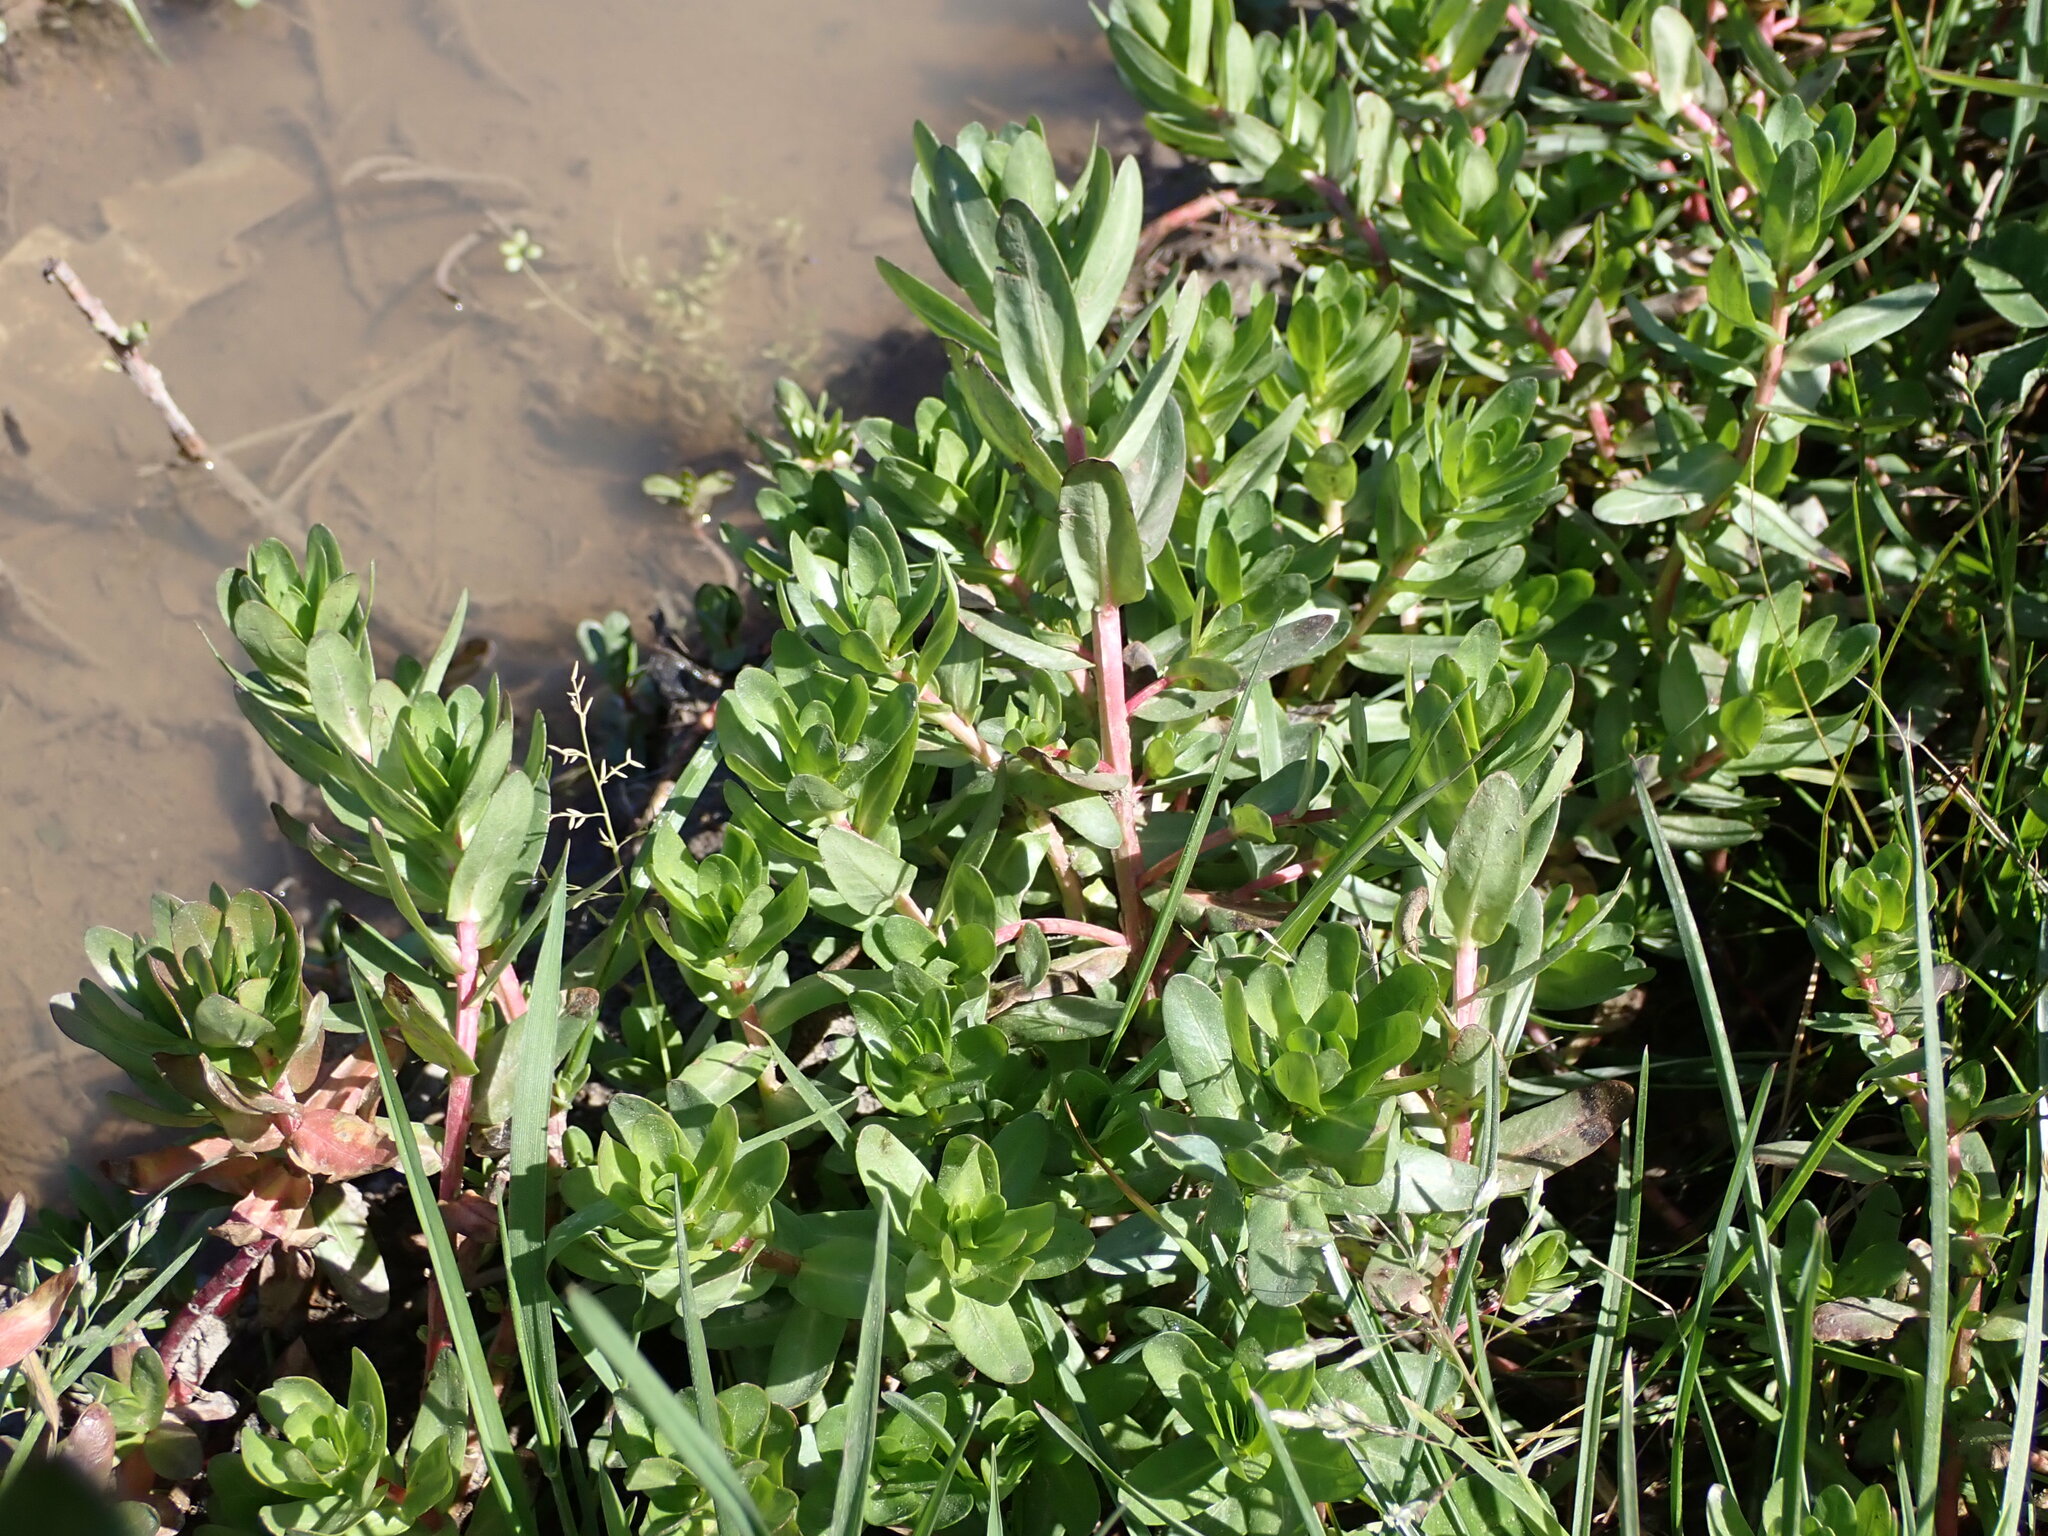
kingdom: Plantae
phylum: Tracheophyta
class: Magnoliopsida
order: Myrtales
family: Lythraceae
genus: Lythrum
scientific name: Lythrum hyssopifolia
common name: Grass-poly
